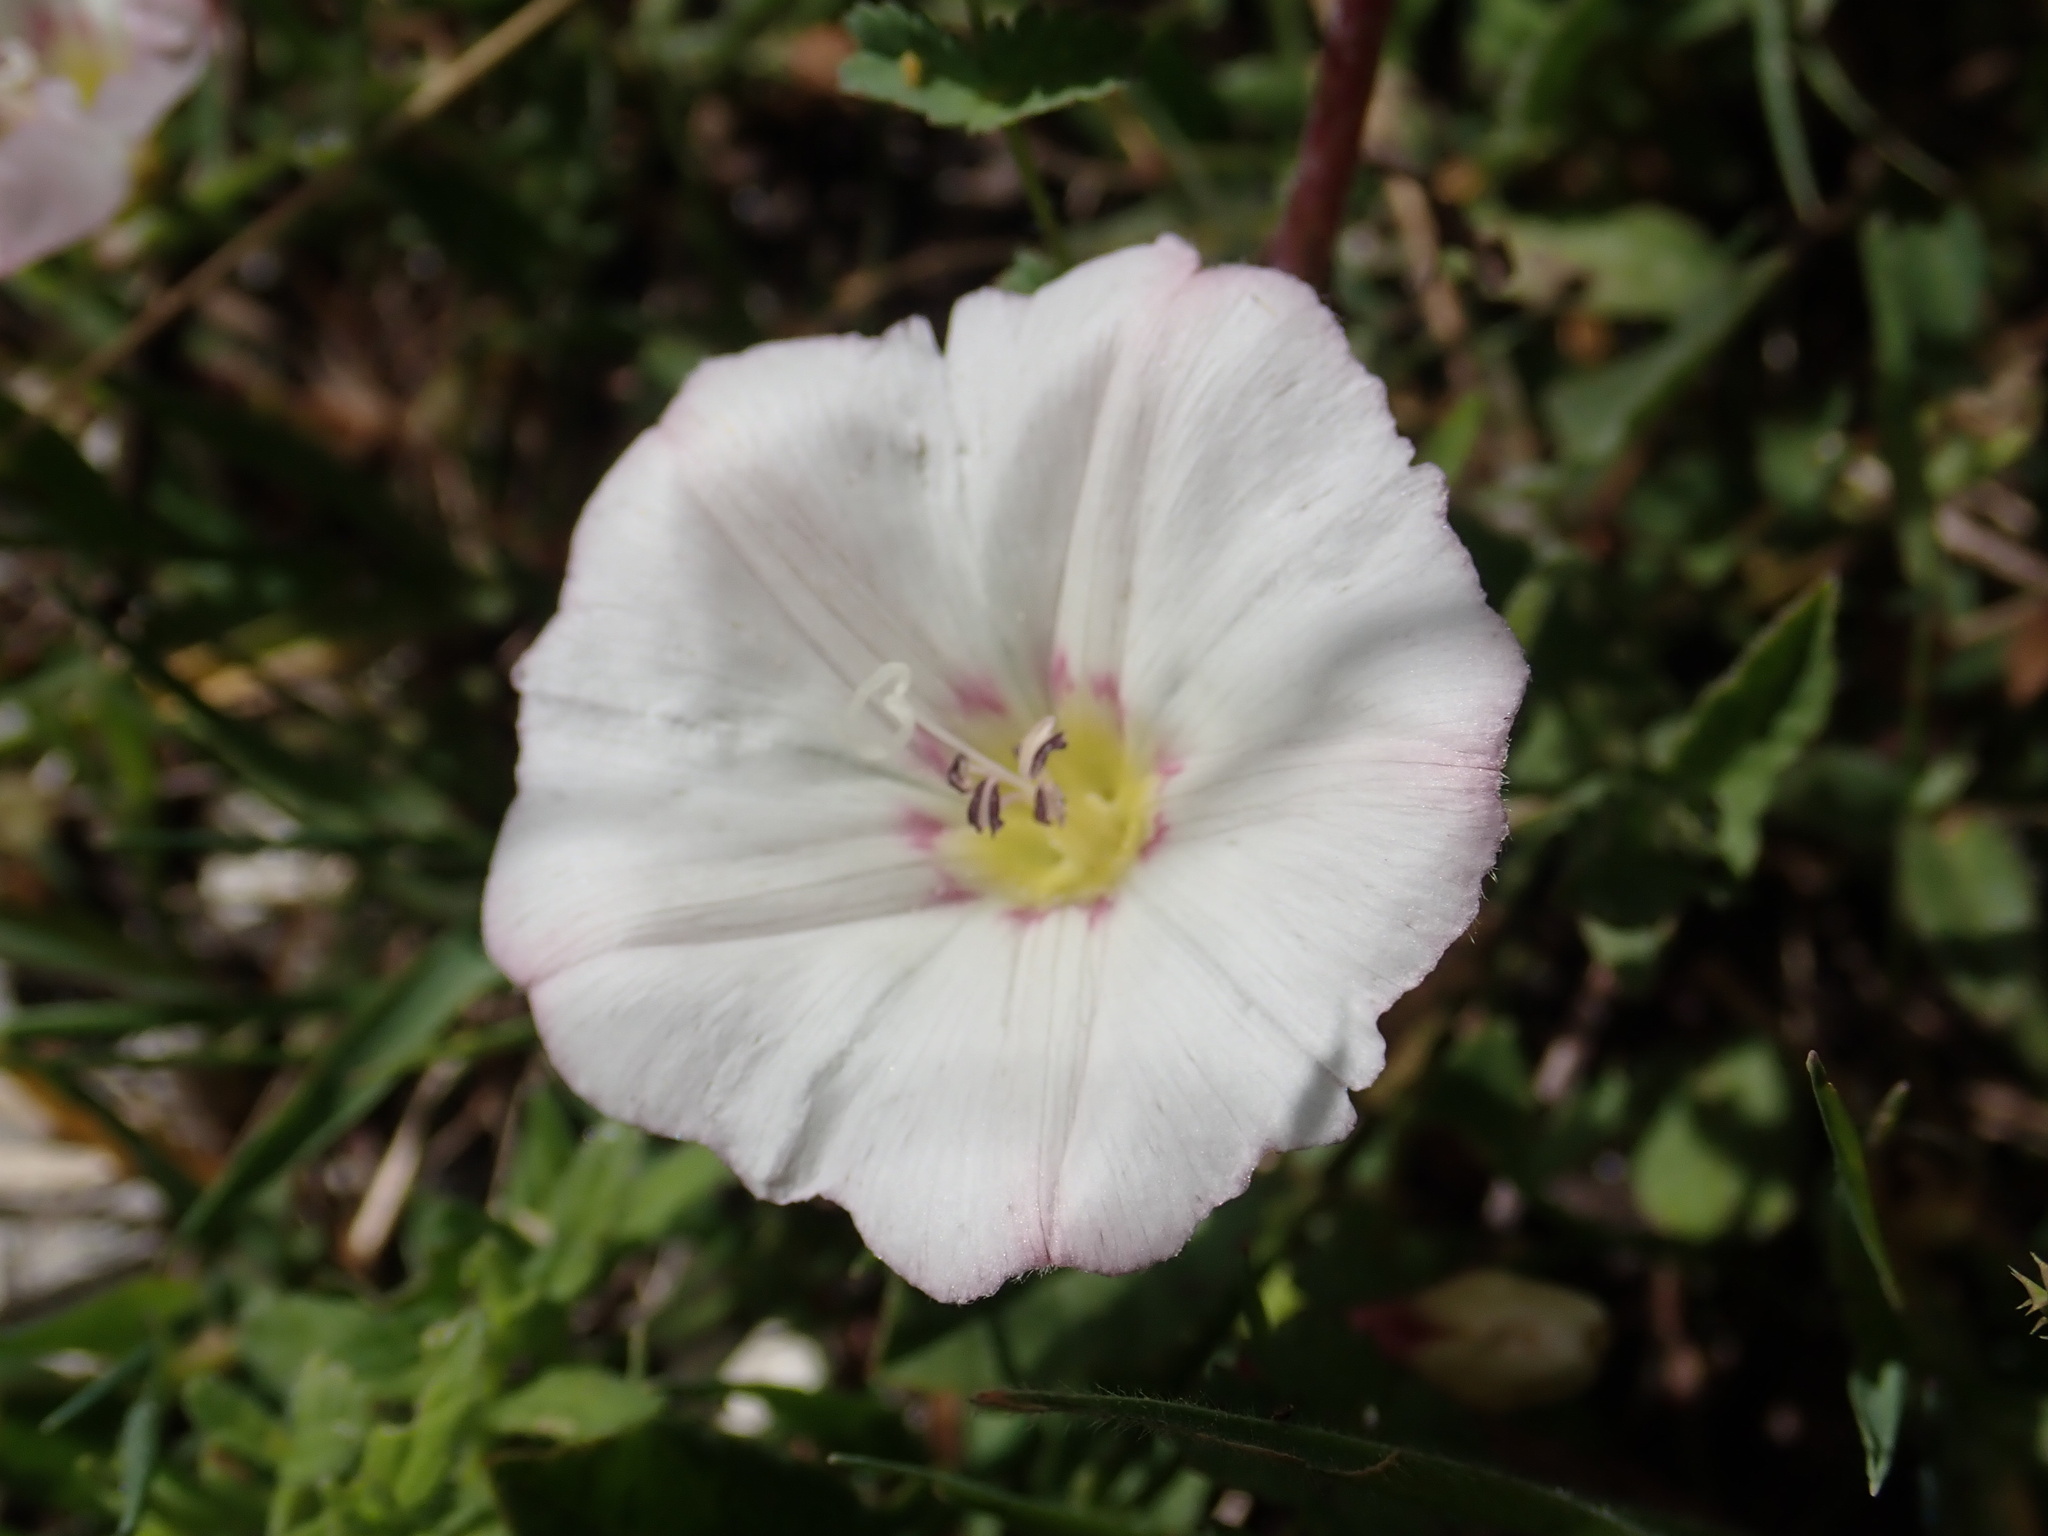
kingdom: Plantae
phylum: Tracheophyta
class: Magnoliopsida
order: Solanales
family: Convolvulaceae
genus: Convolvulus
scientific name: Convolvulus arvensis
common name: Field bindweed
